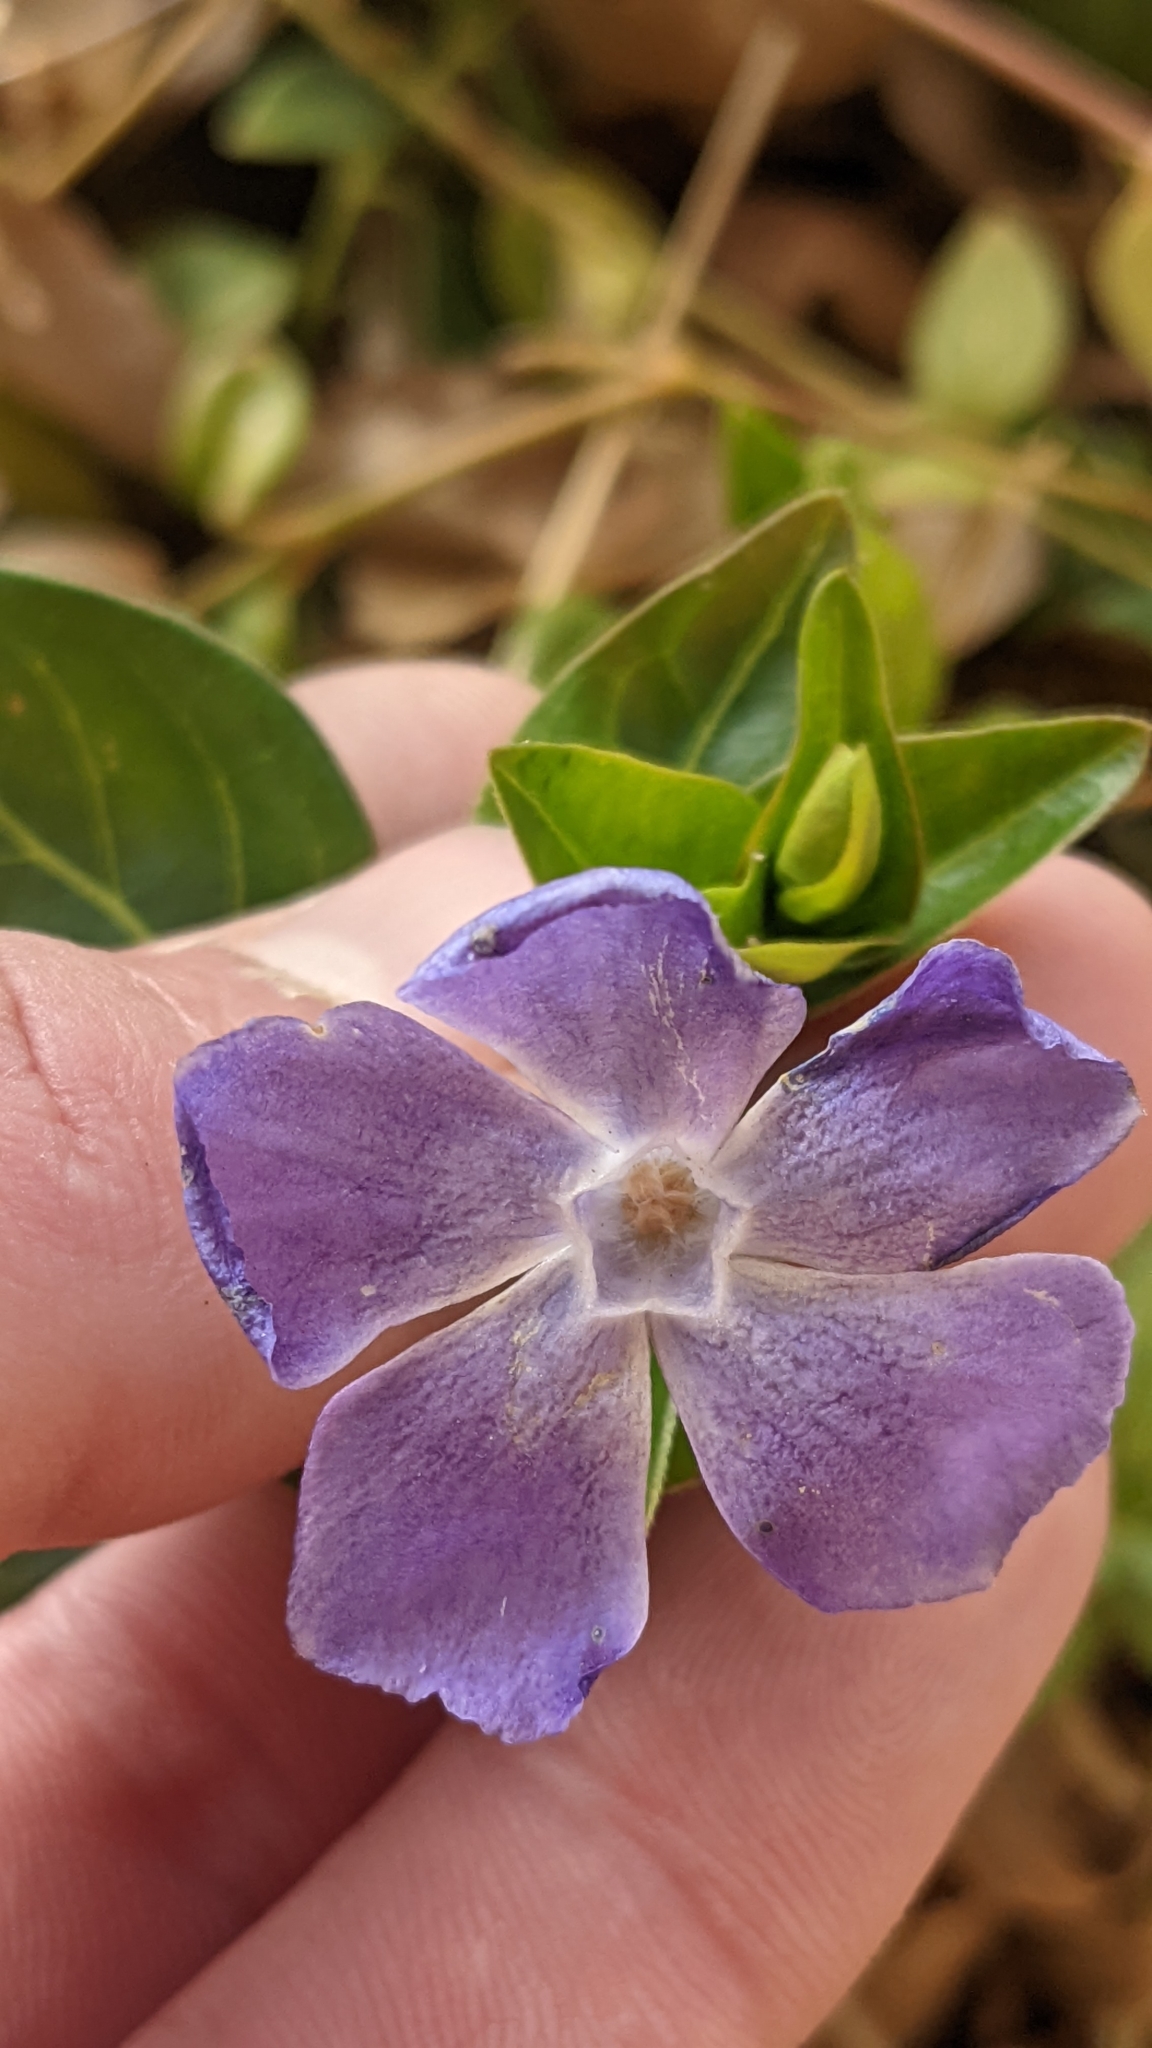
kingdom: Plantae
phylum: Tracheophyta
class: Magnoliopsida
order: Gentianales
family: Apocynaceae
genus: Vinca
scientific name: Vinca major
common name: Greater periwinkle
